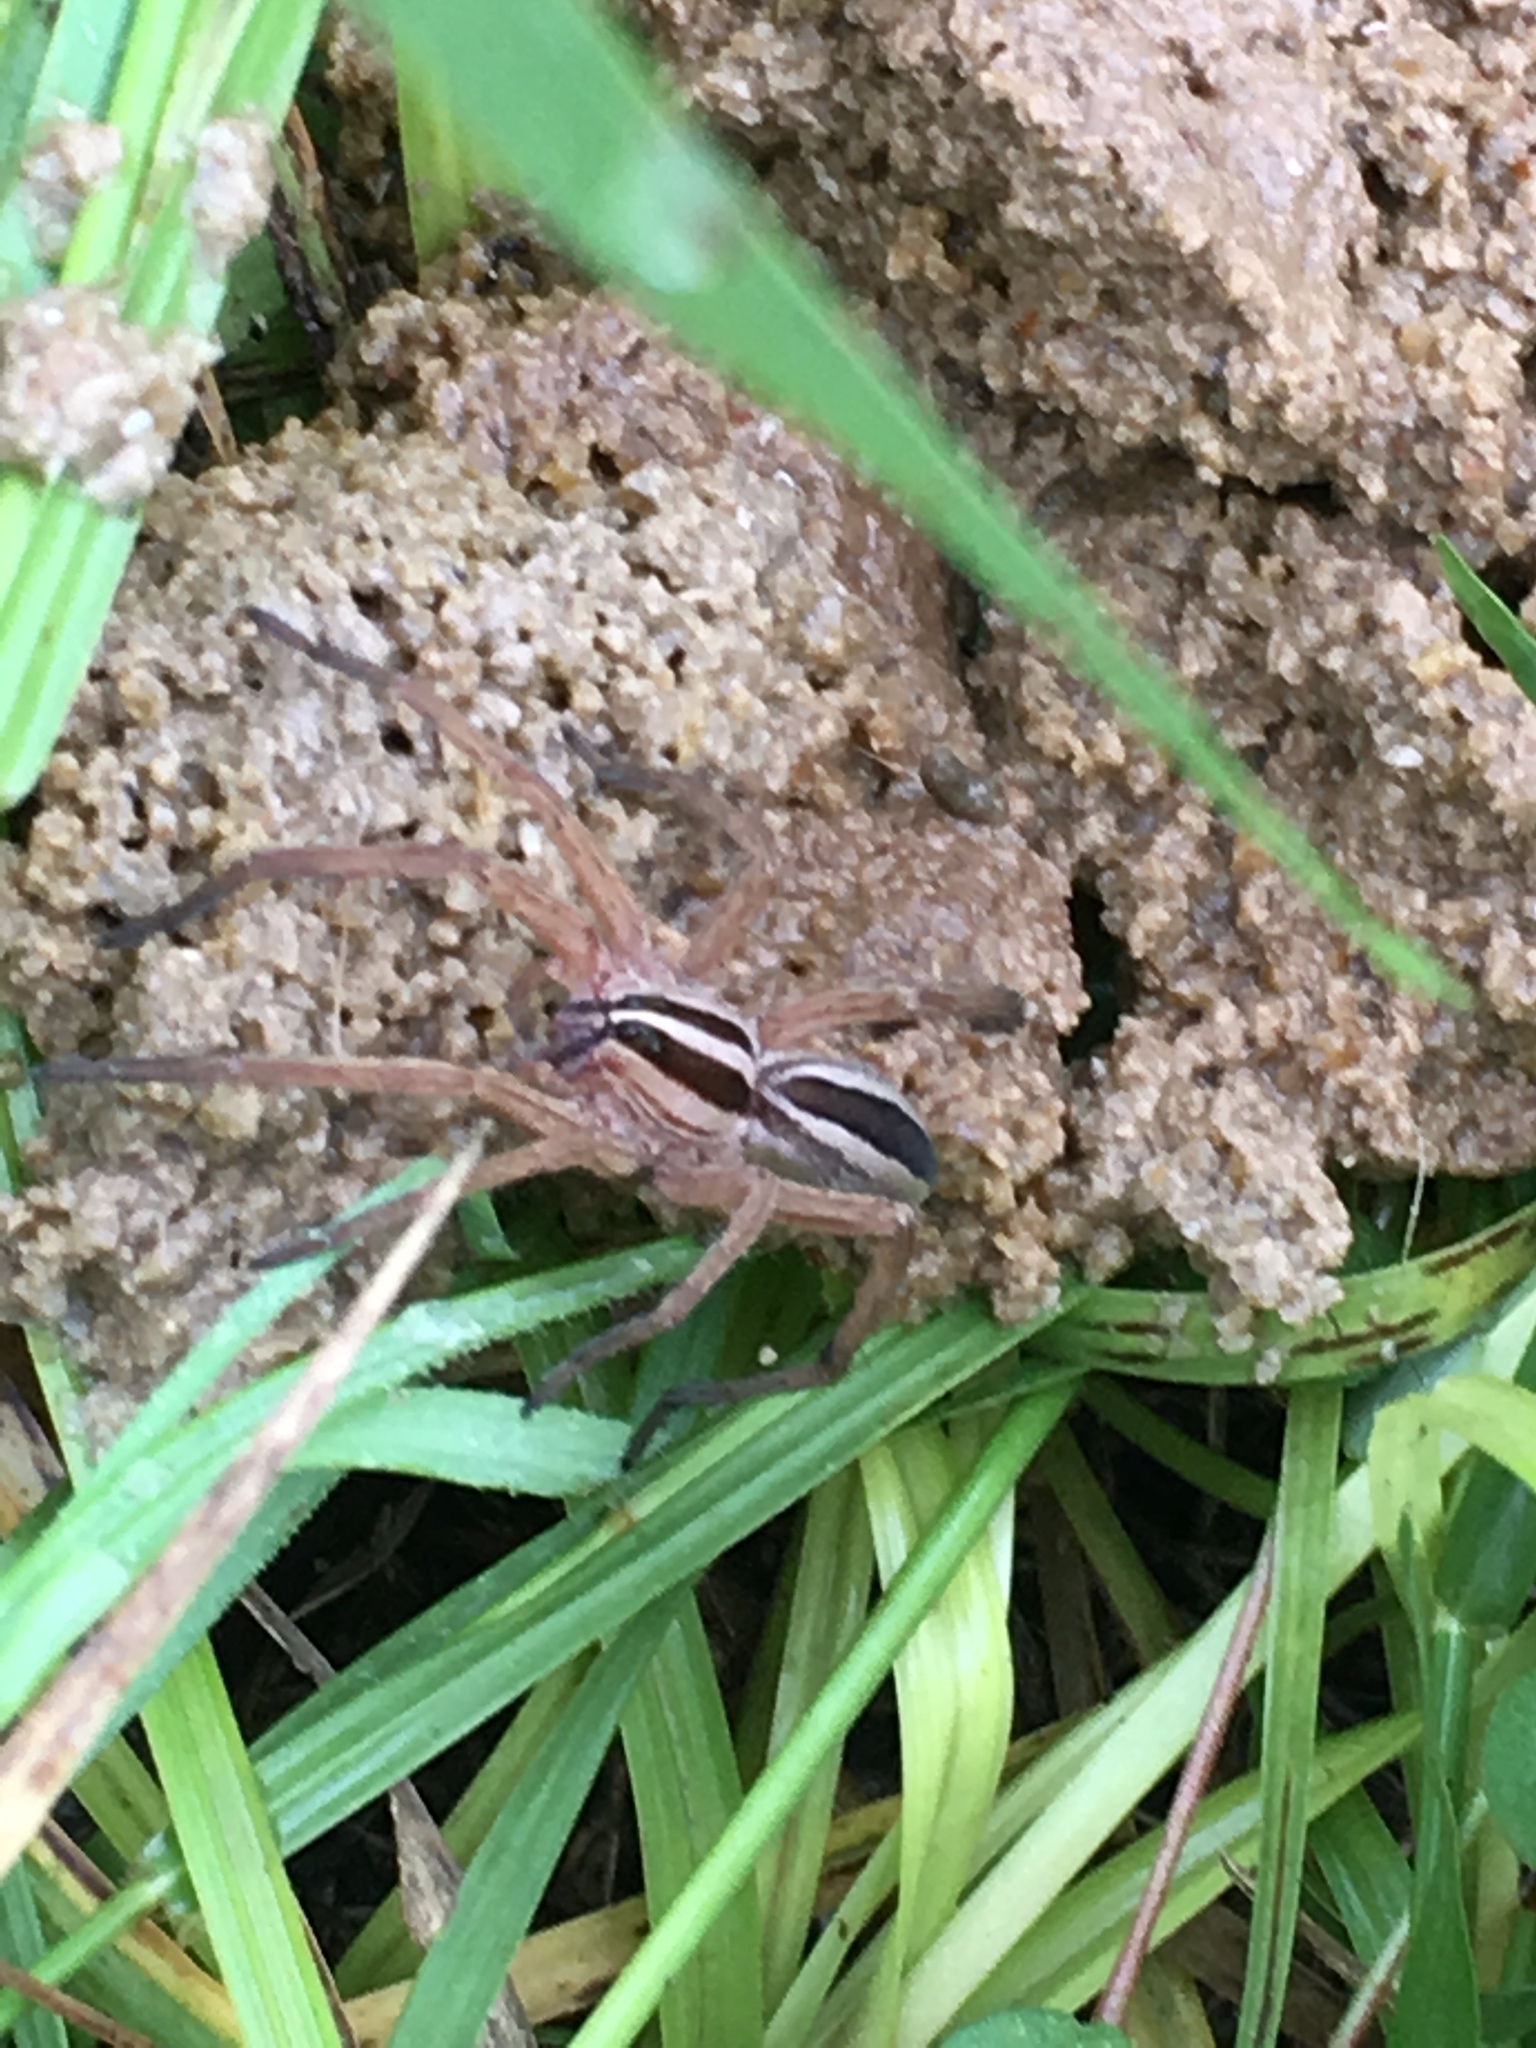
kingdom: Animalia
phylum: Arthropoda
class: Arachnida
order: Araneae
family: Lycosidae
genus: Rabidosa
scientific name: Rabidosa punctulata
